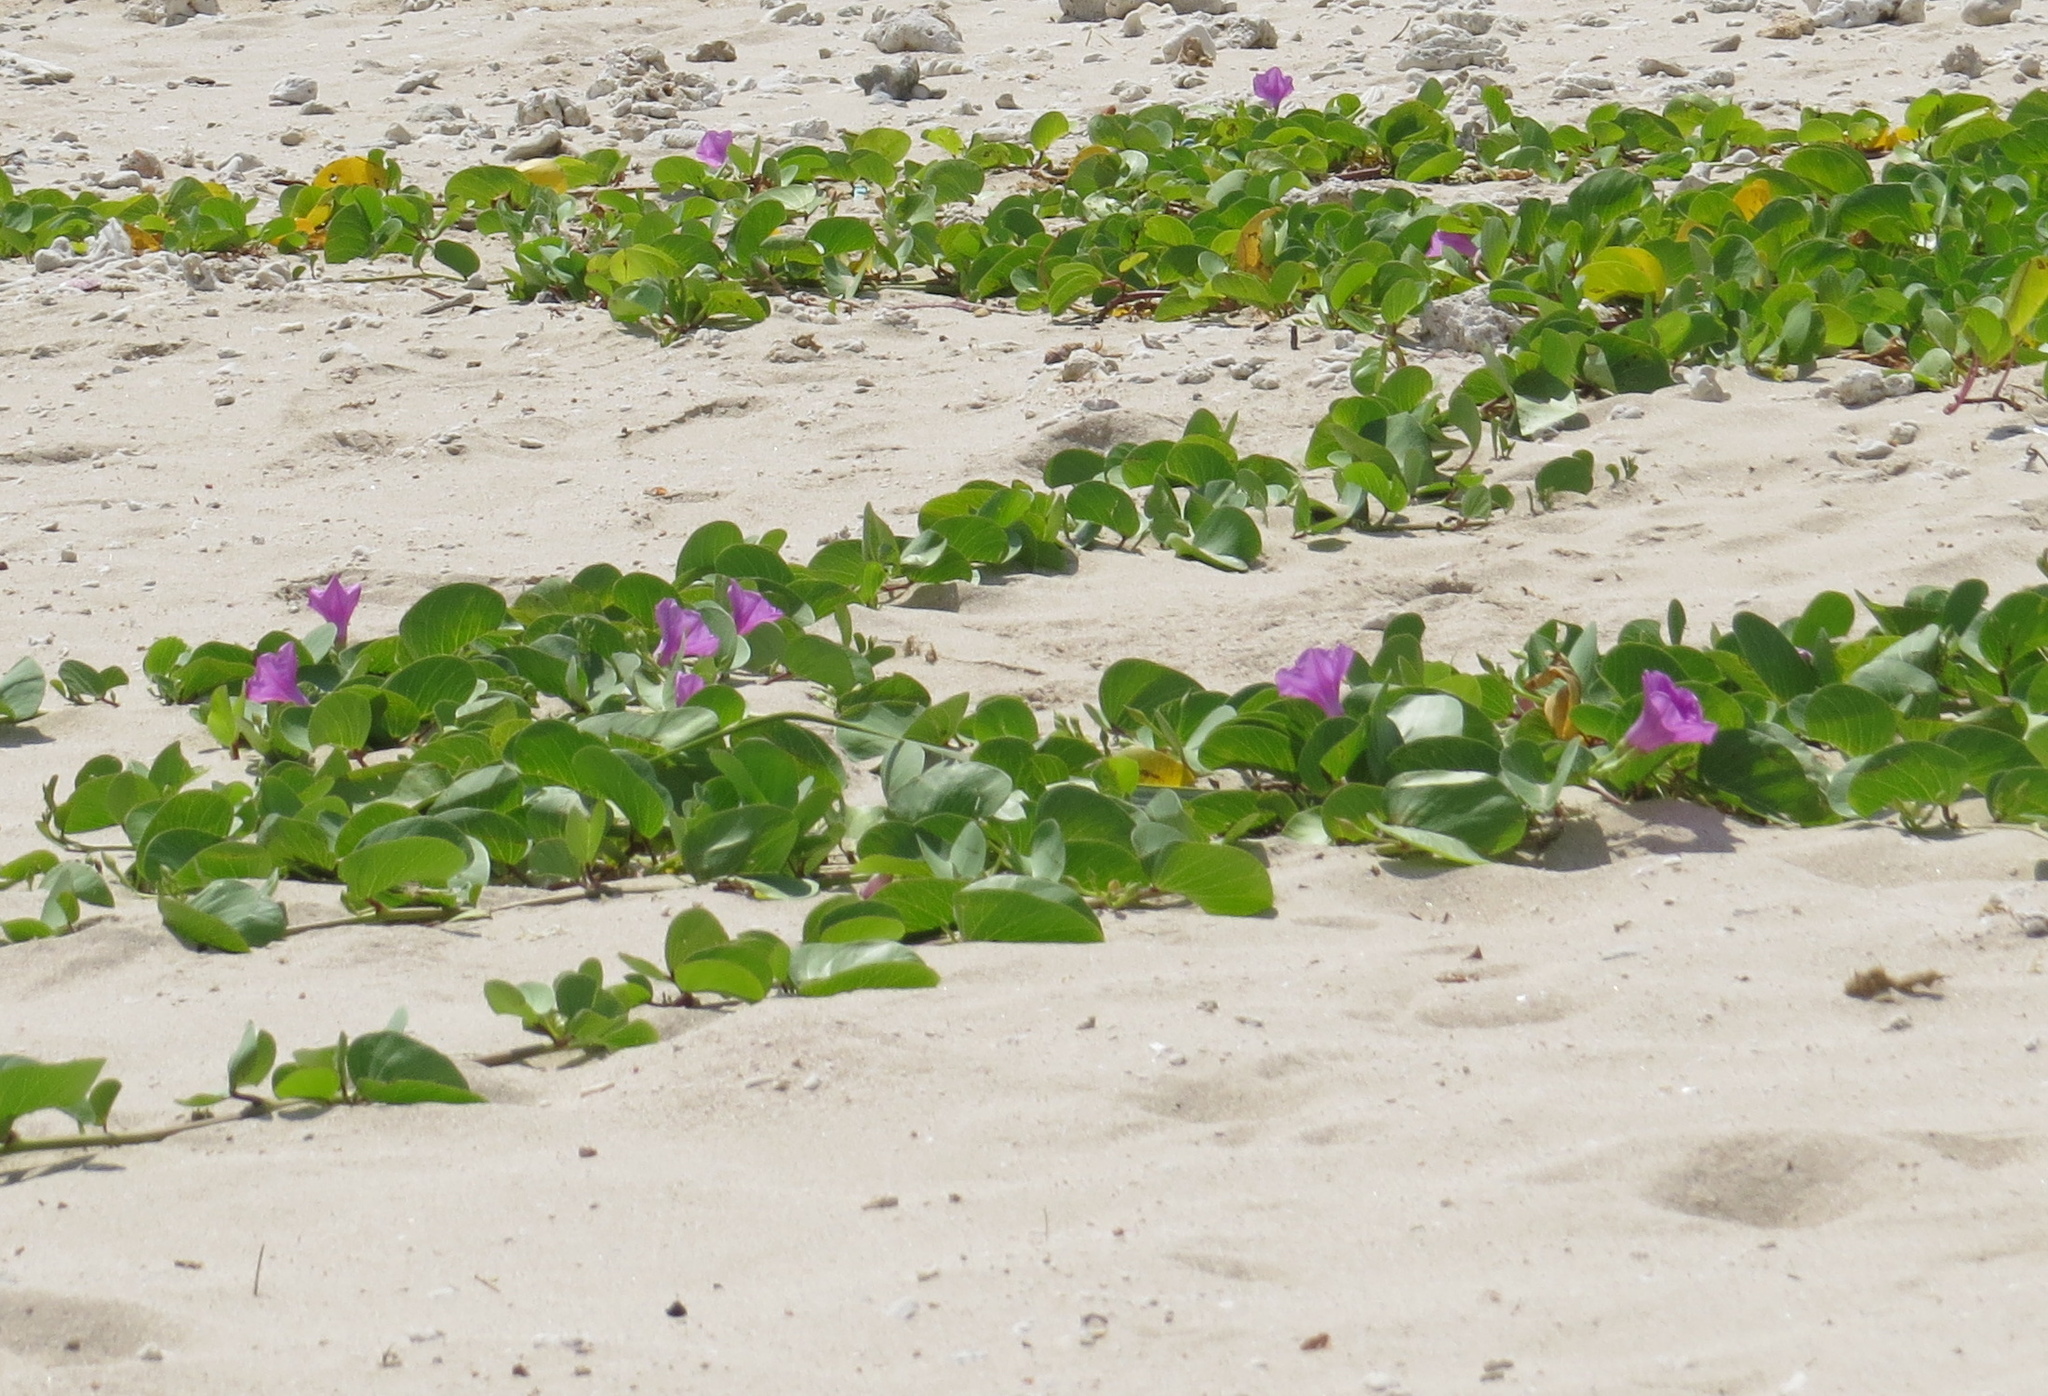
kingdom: Plantae
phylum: Tracheophyta
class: Magnoliopsida
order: Solanales
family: Convolvulaceae
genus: Ipomoea
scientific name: Ipomoea pes-caprae
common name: Beach morning glory
